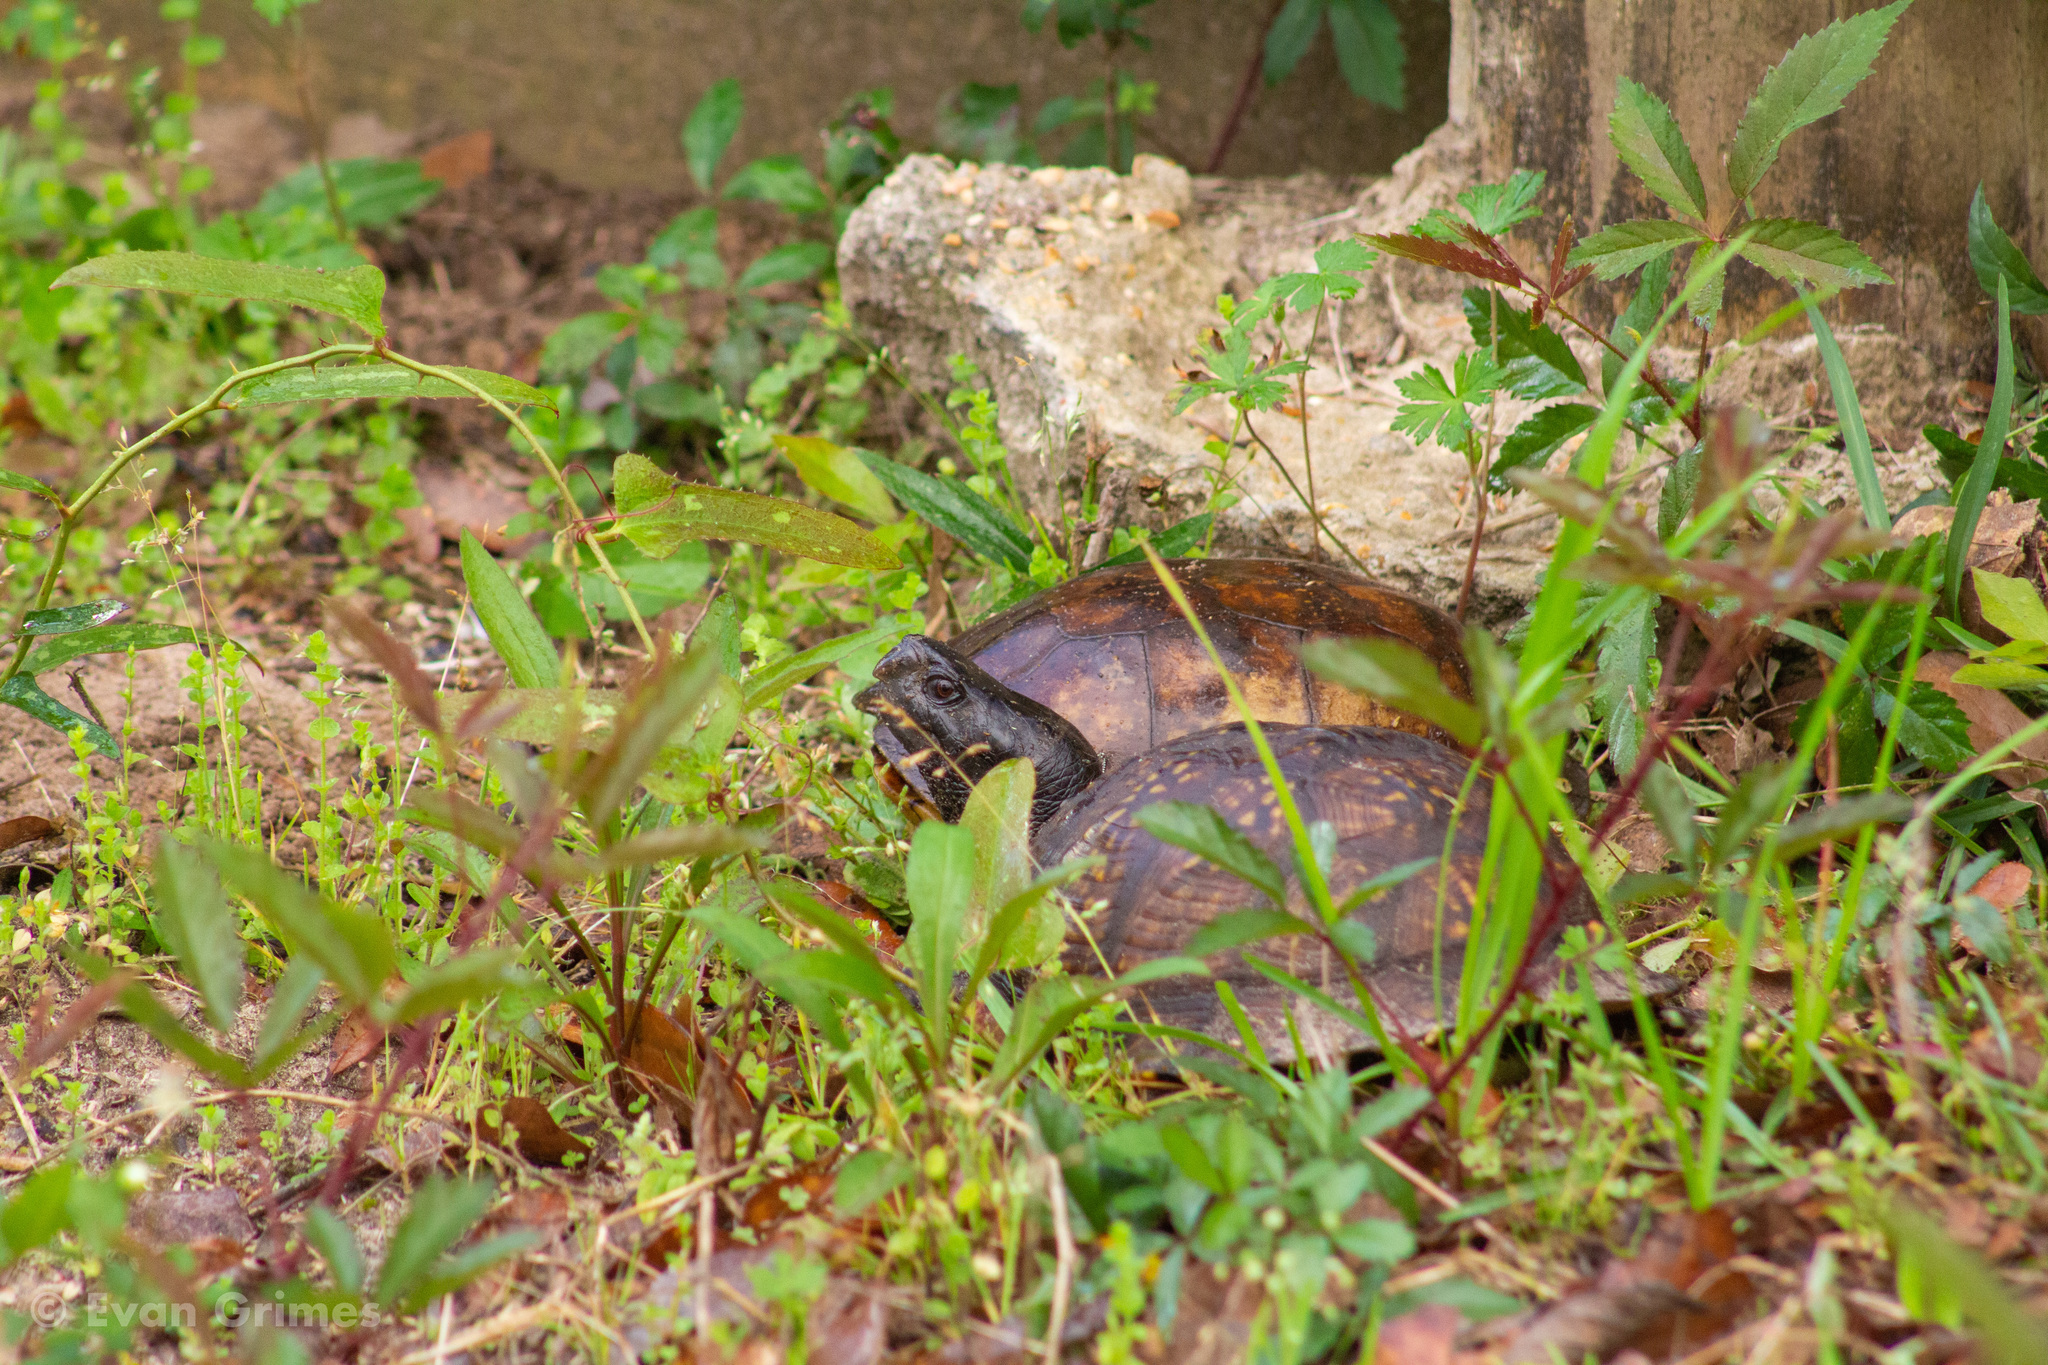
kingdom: Animalia
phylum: Chordata
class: Testudines
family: Emydidae
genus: Terrapene
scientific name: Terrapene carolina
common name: Common box turtle
